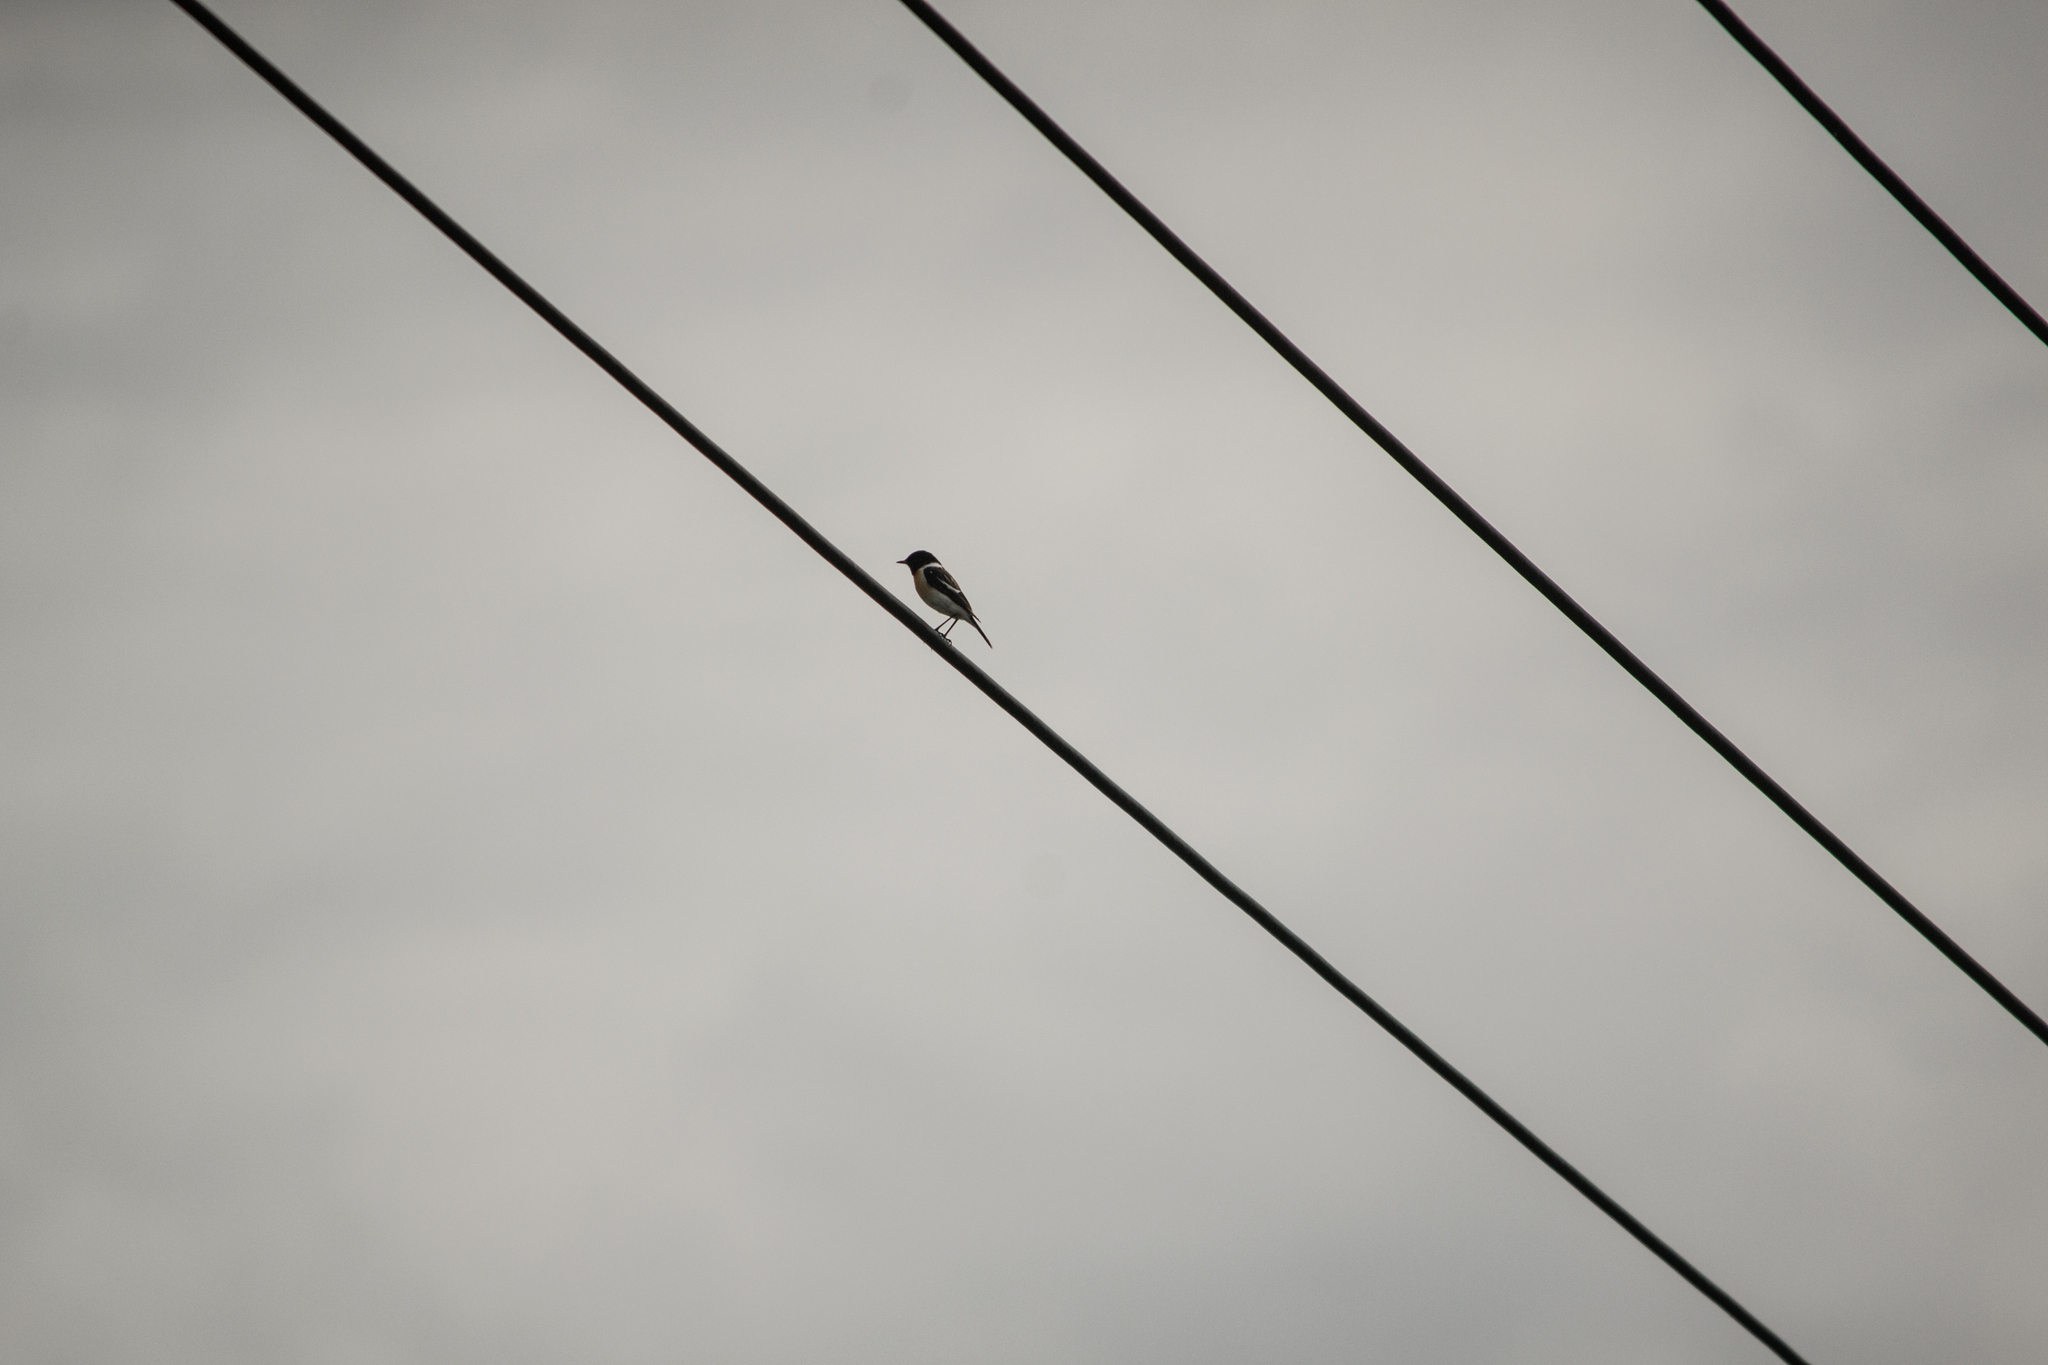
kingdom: Animalia
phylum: Chordata
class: Aves
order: Passeriformes
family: Muscicapidae
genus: Saxicola
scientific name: Saxicola maurus
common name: Siberian stonechat
